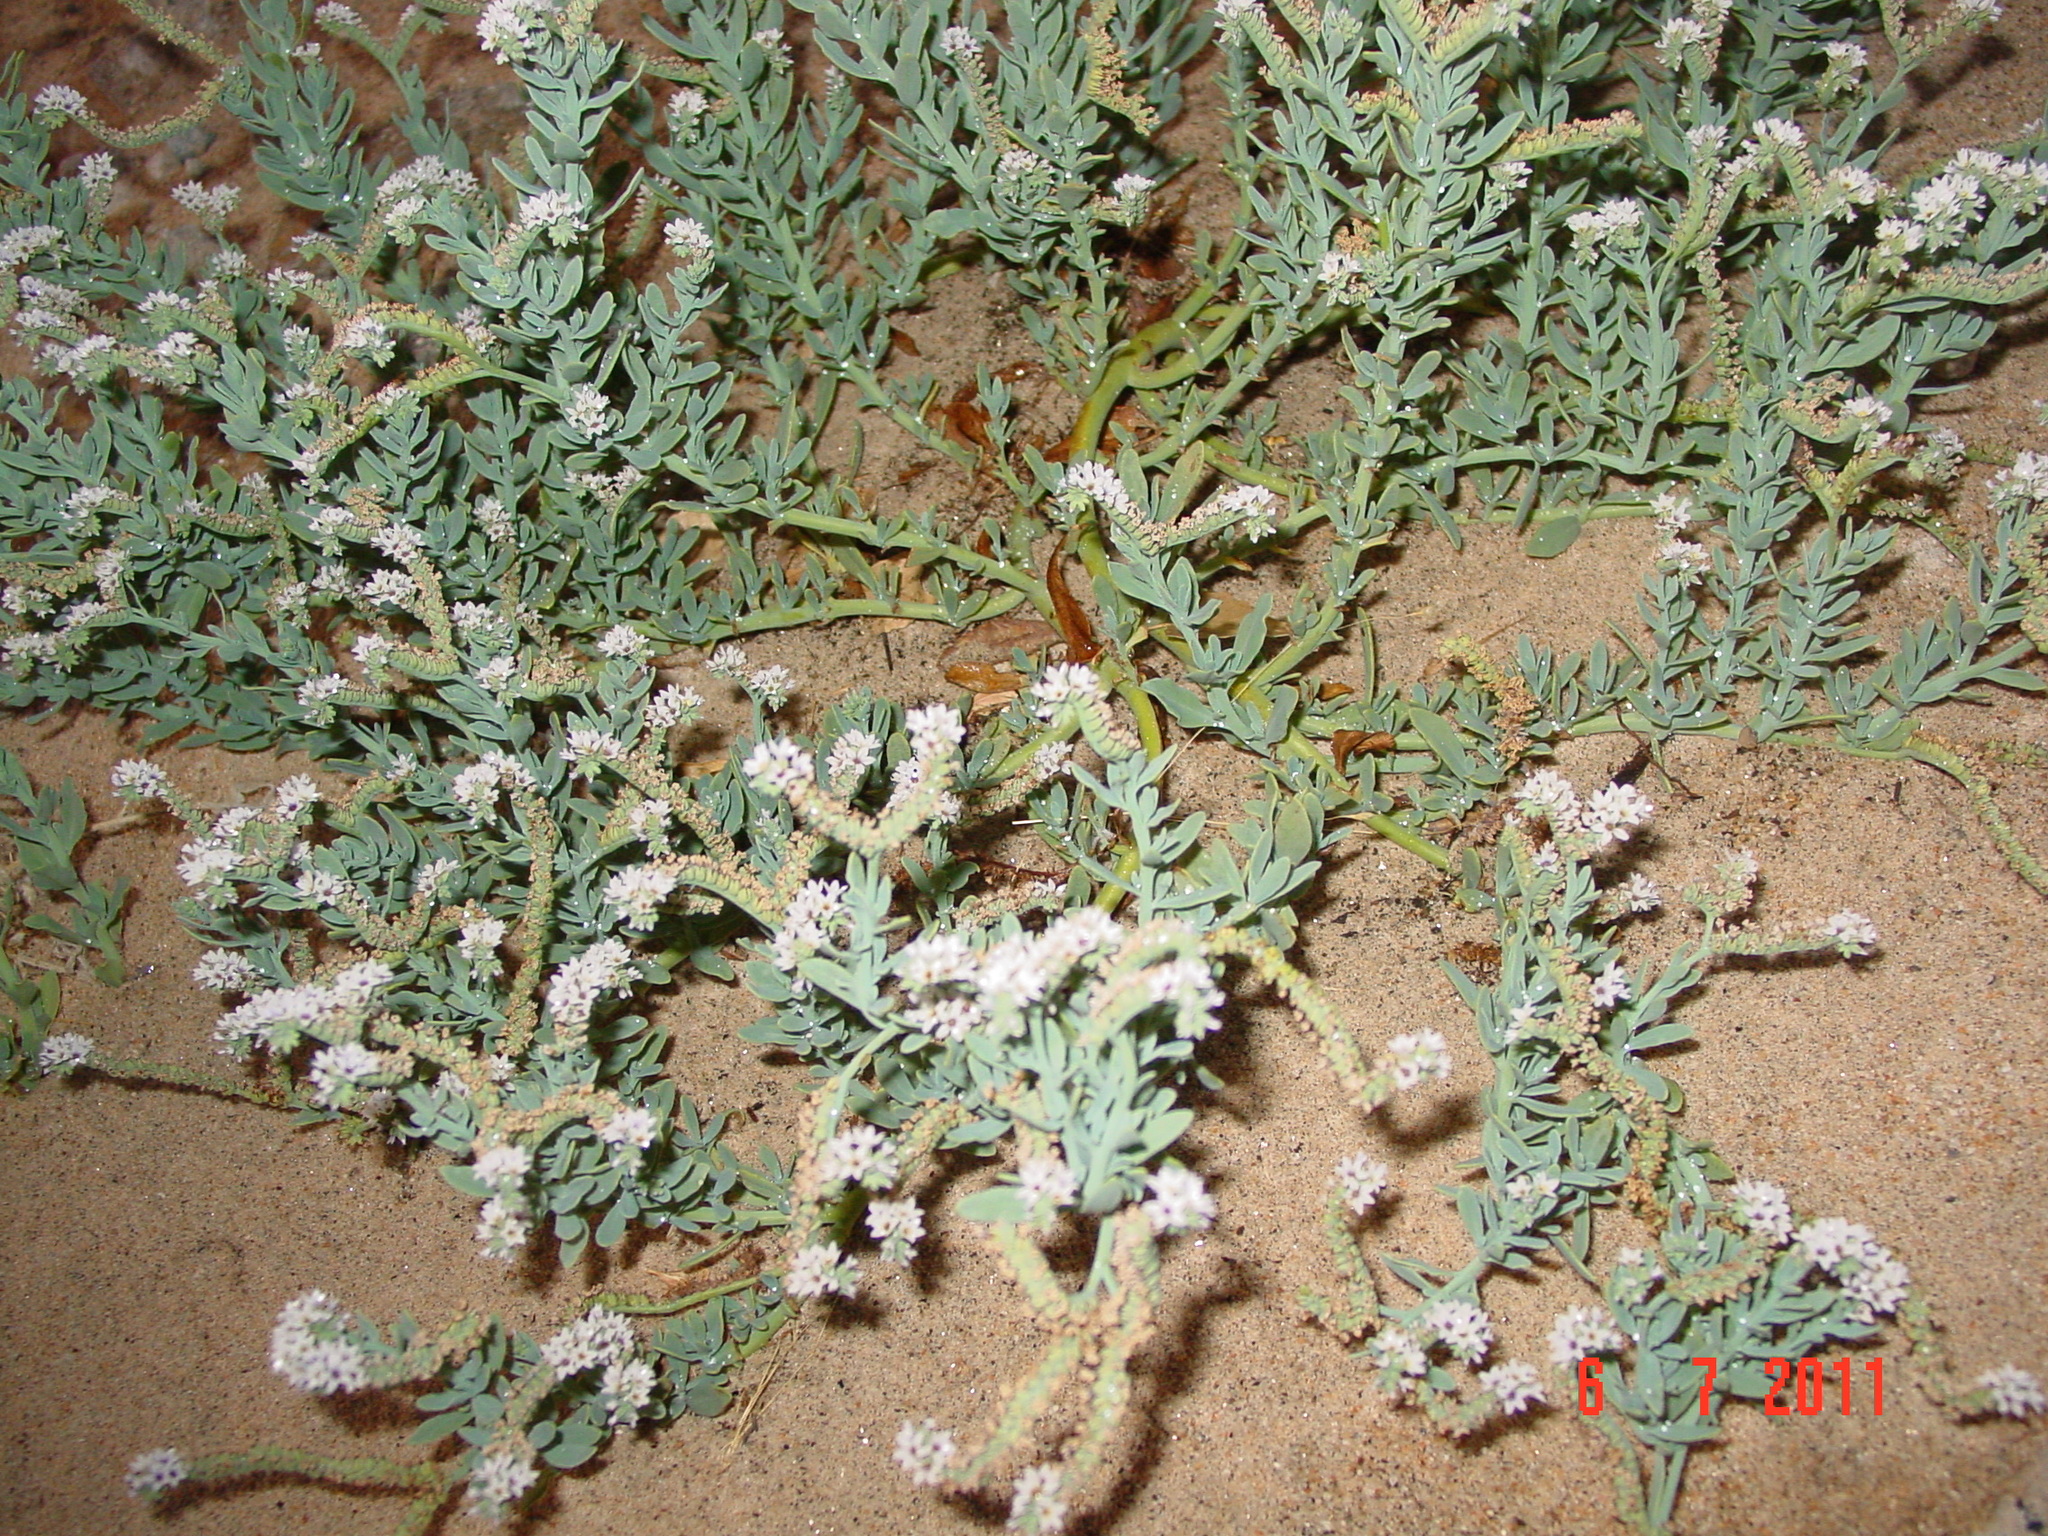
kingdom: Plantae
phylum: Tracheophyta
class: Magnoliopsida
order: Boraginales
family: Heliotropiaceae
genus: Heliotropium
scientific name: Heliotropium curassavicum
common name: Seaside heliotrope
